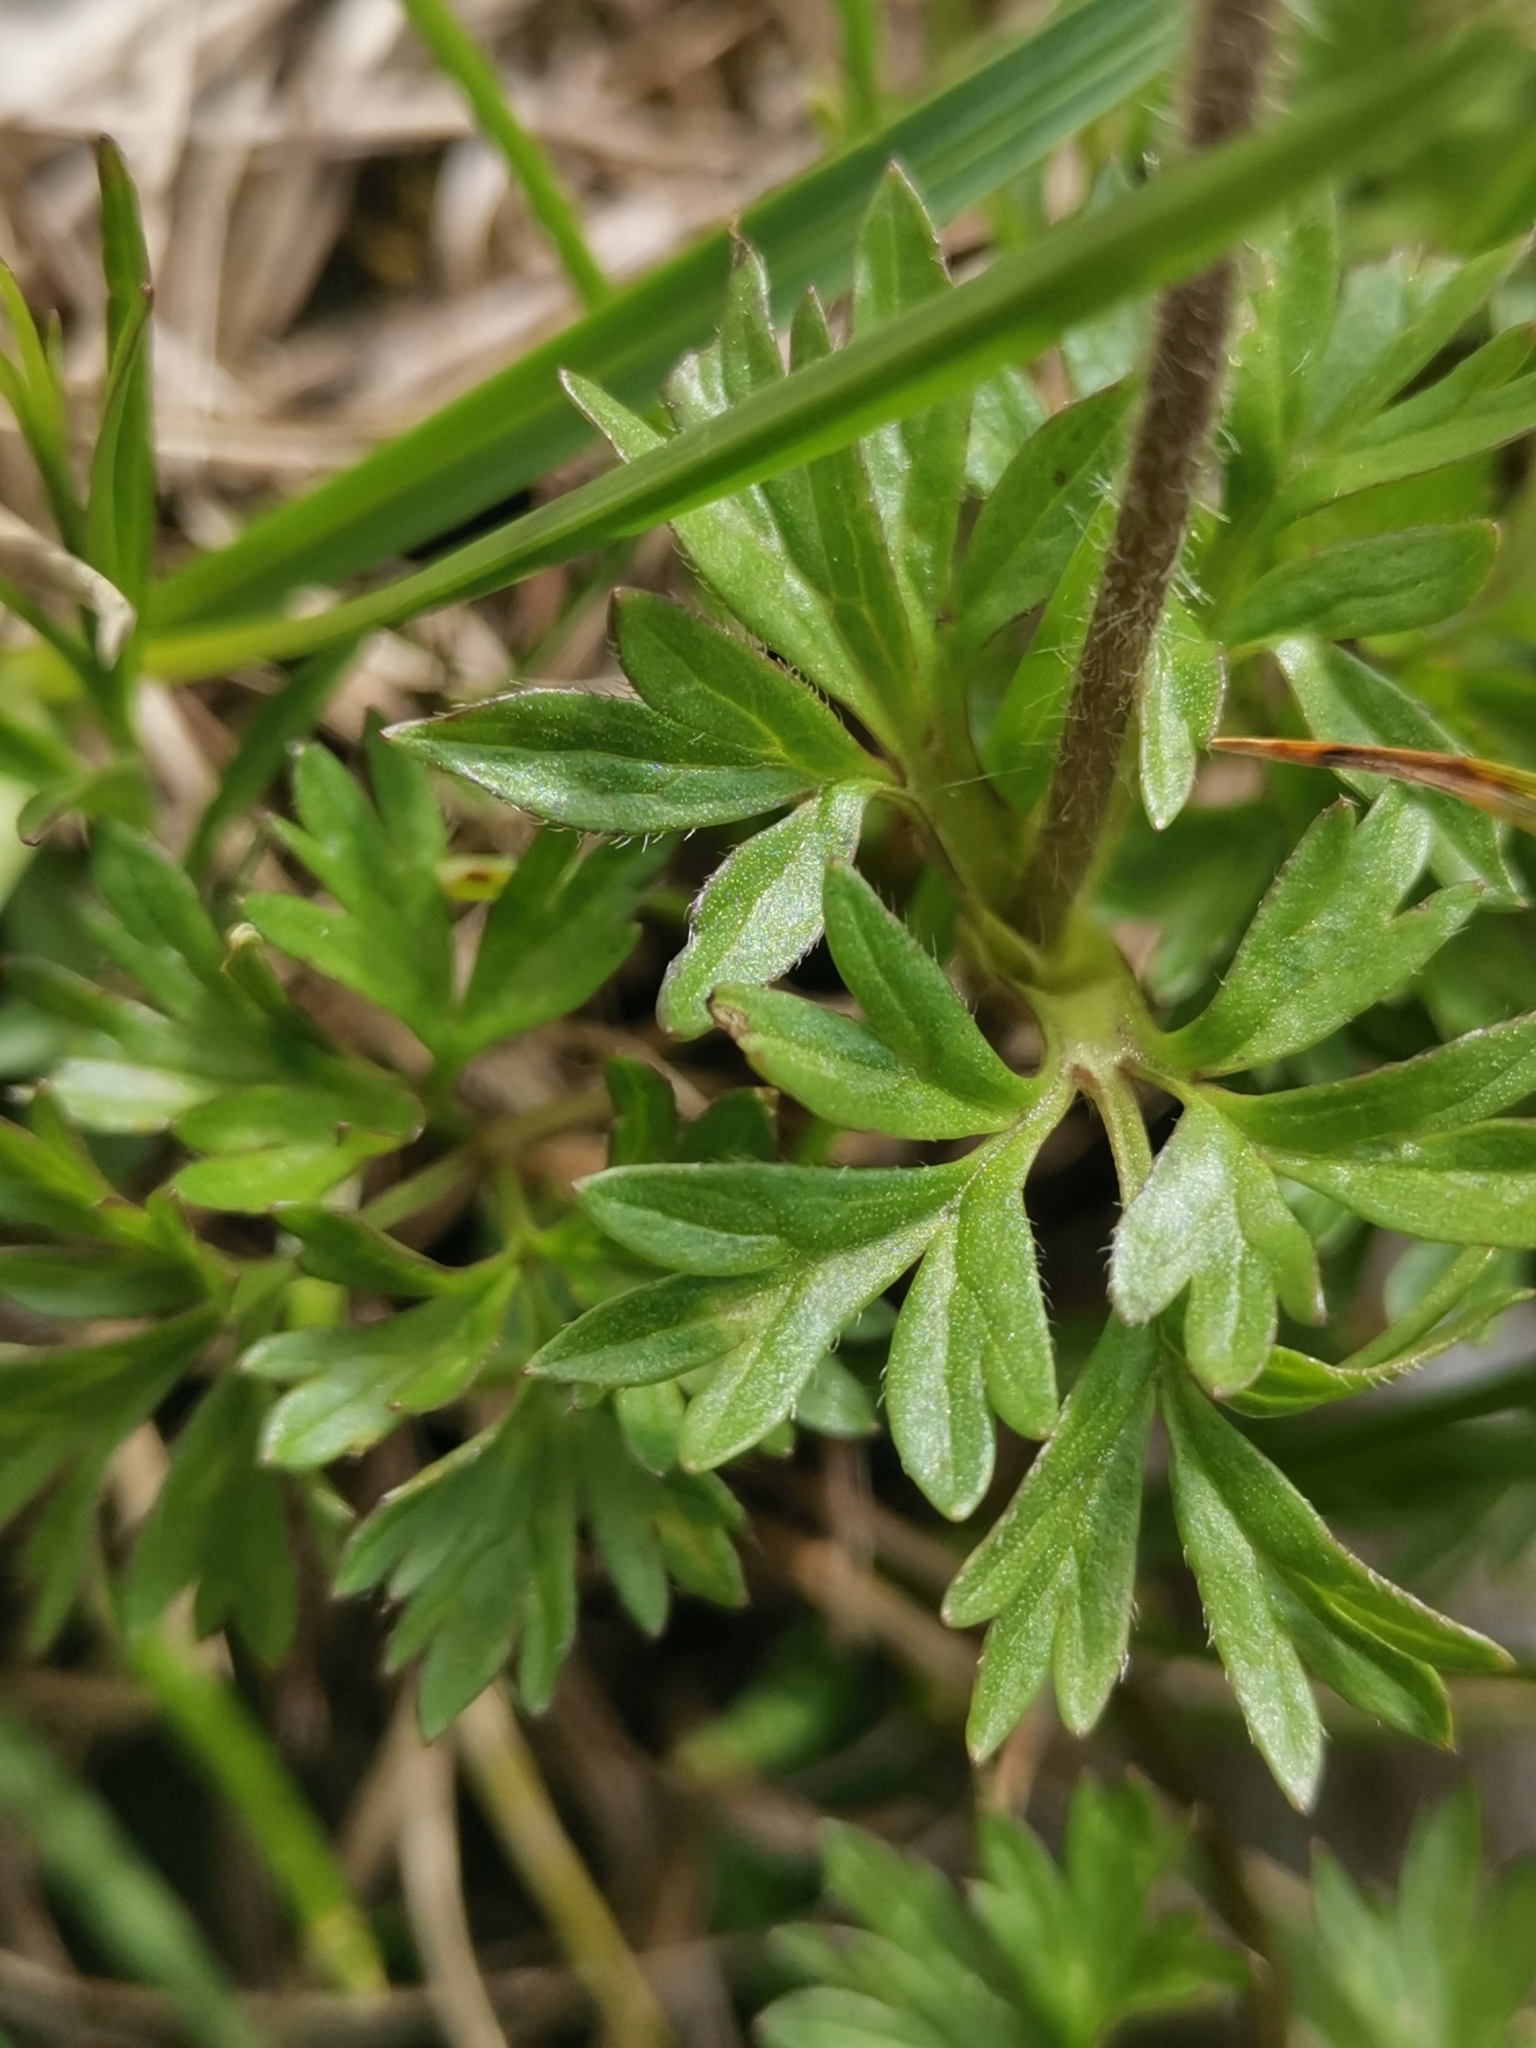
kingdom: Plantae
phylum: Tracheophyta
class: Magnoliopsida
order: Ranunculales
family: Ranunculaceae
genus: Anemone
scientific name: Anemone baldensis
